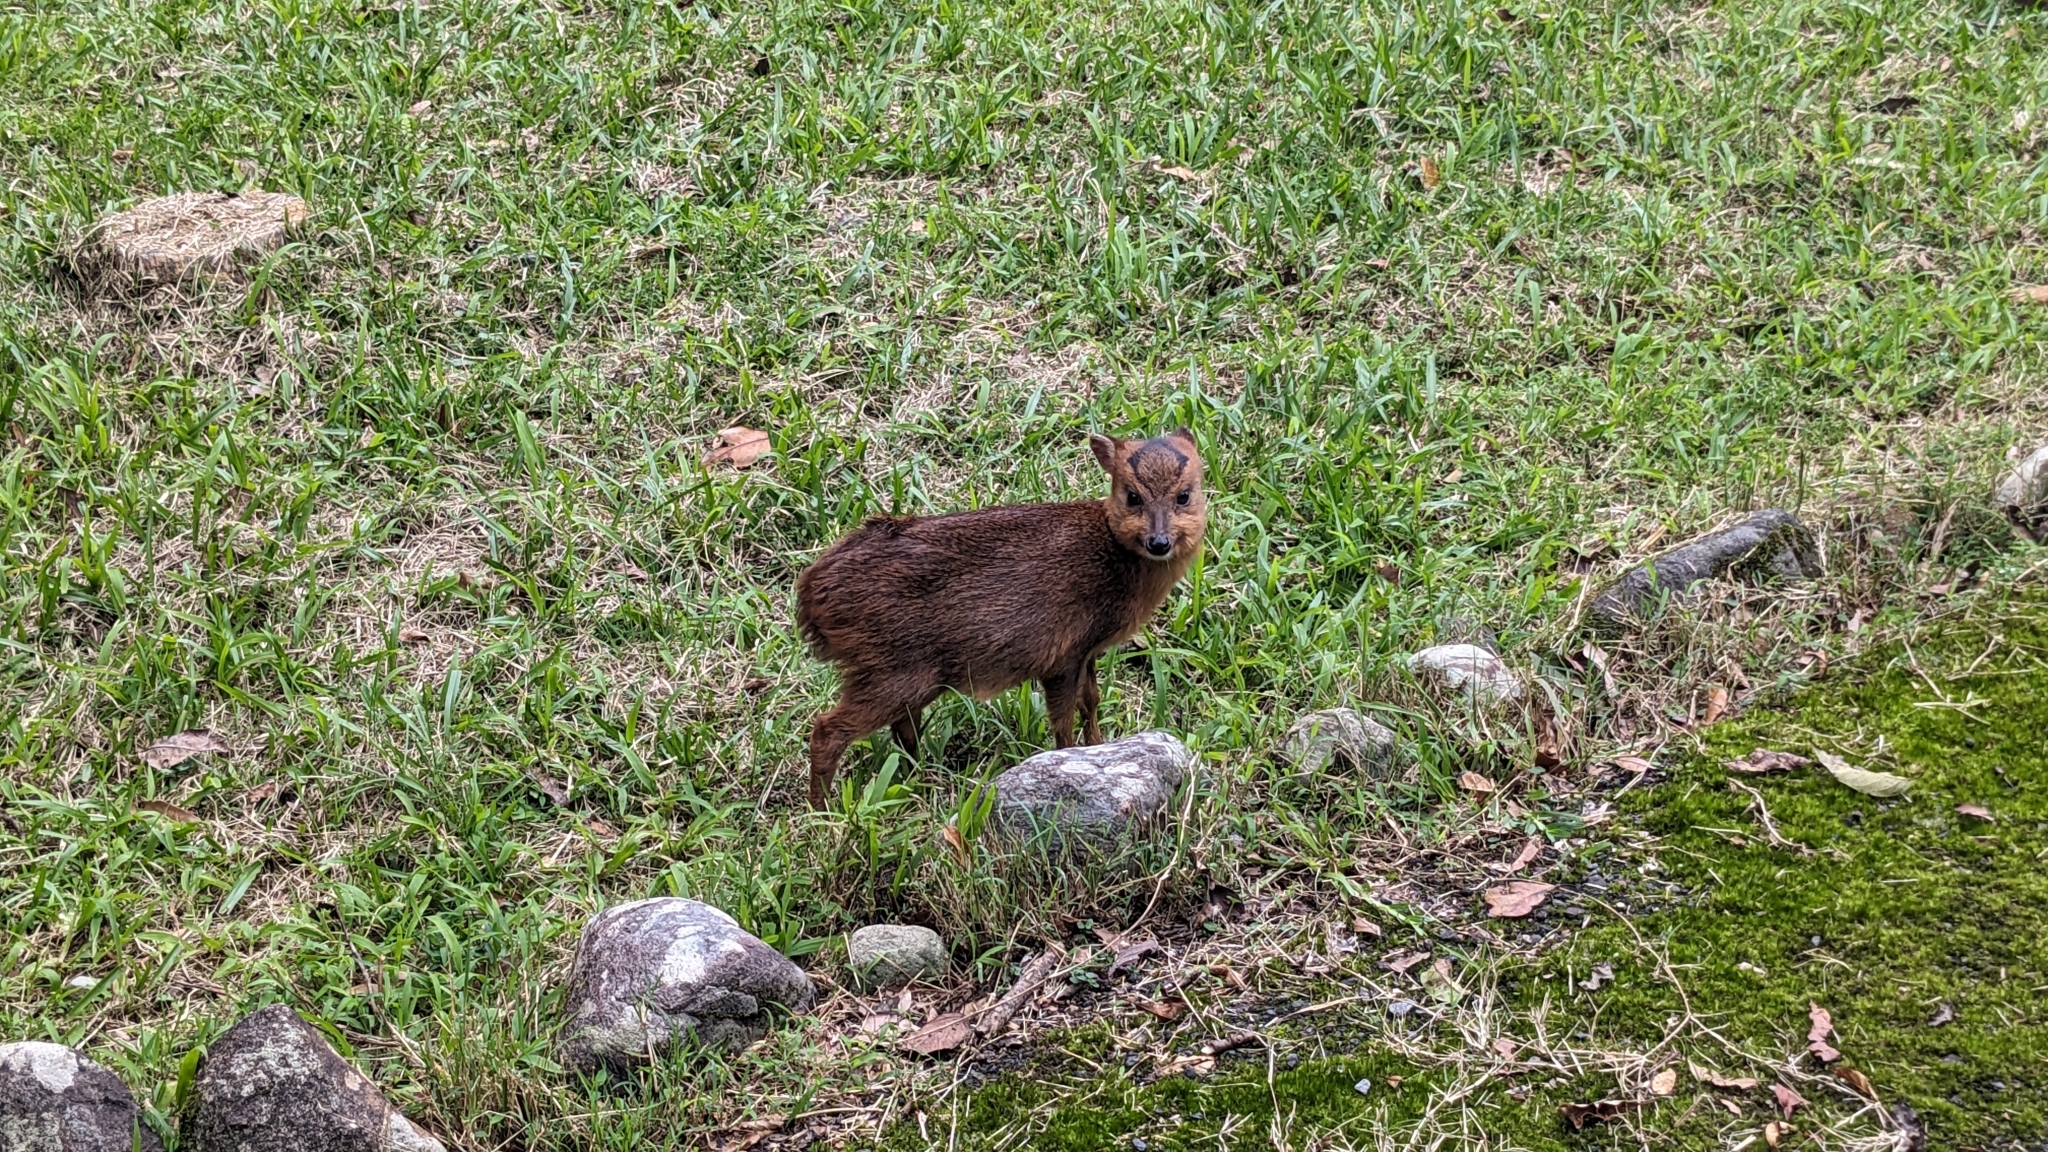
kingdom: Animalia
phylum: Chordata
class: Mammalia
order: Artiodactyla
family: Cervidae
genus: Muntiacus
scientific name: Muntiacus reevesi
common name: Reeves' muntjac
